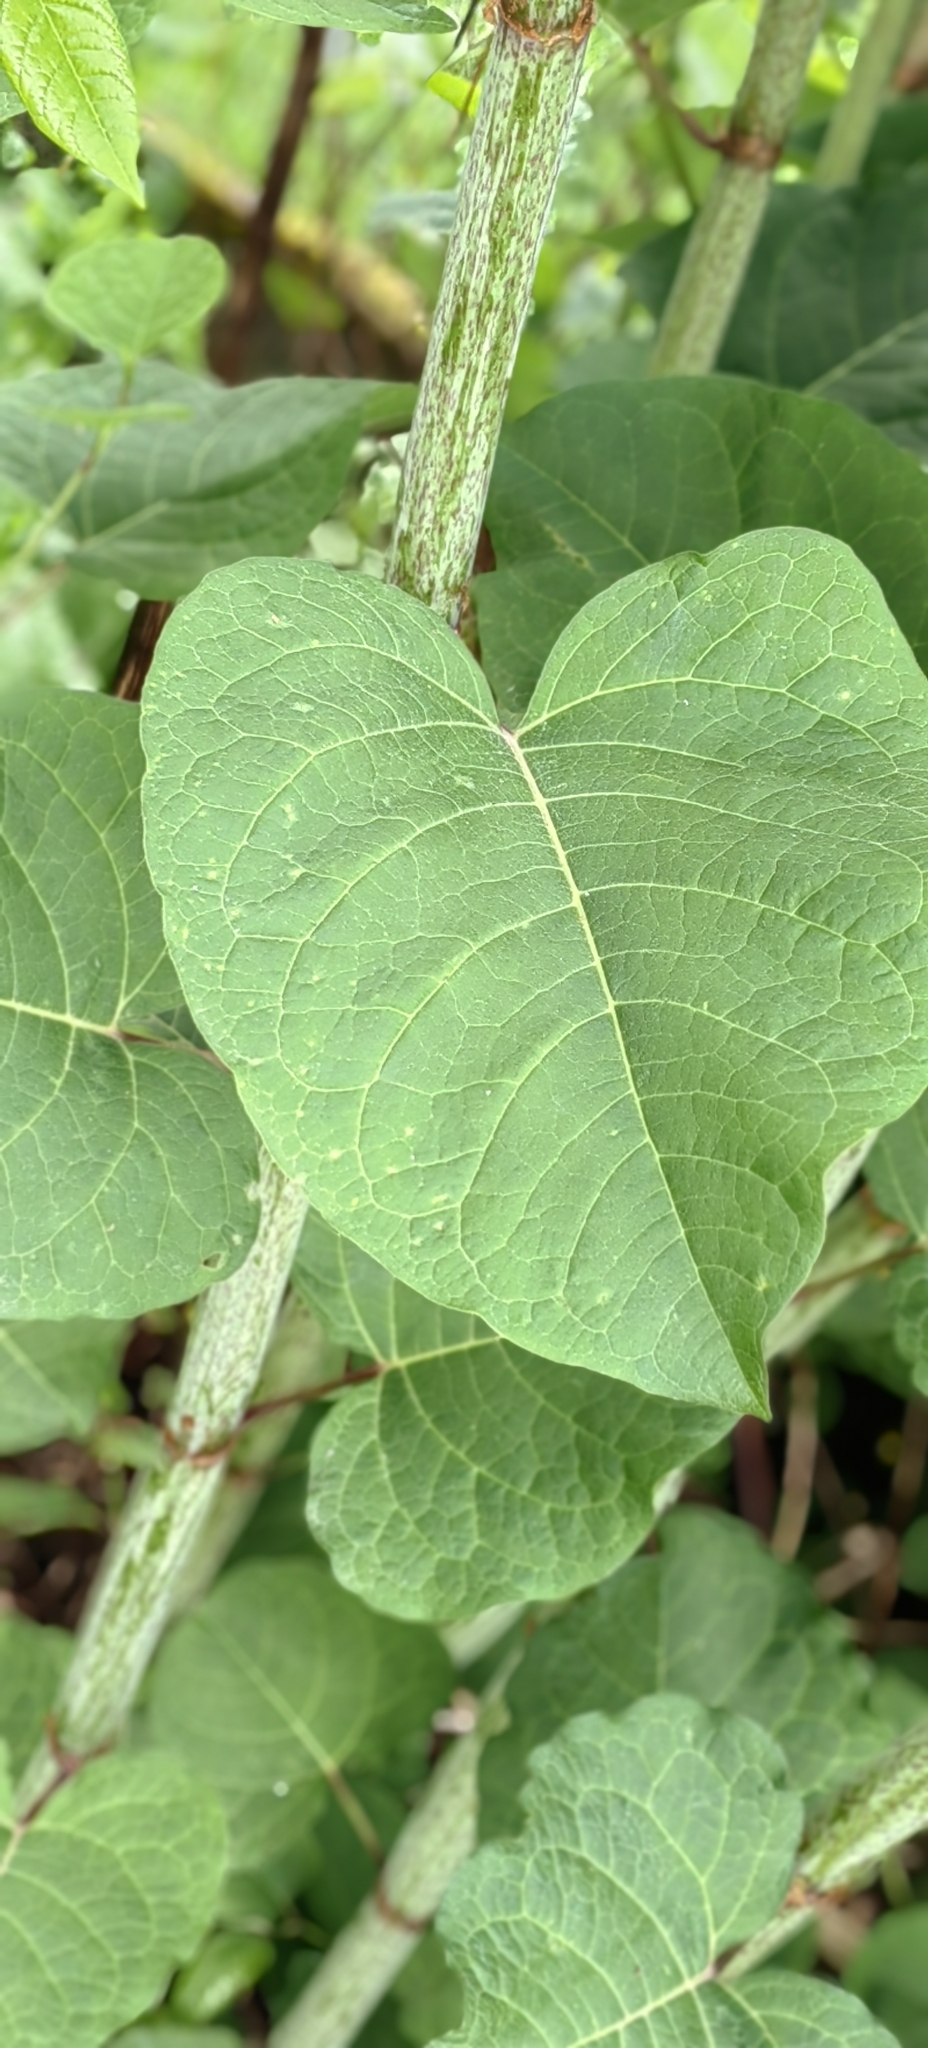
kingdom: Plantae
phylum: Tracheophyta
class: Magnoliopsida
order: Caryophyllales
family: Polygonaceae
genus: Reynoutria
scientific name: Reynoutria bohemica
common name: Bohemian knotweed
